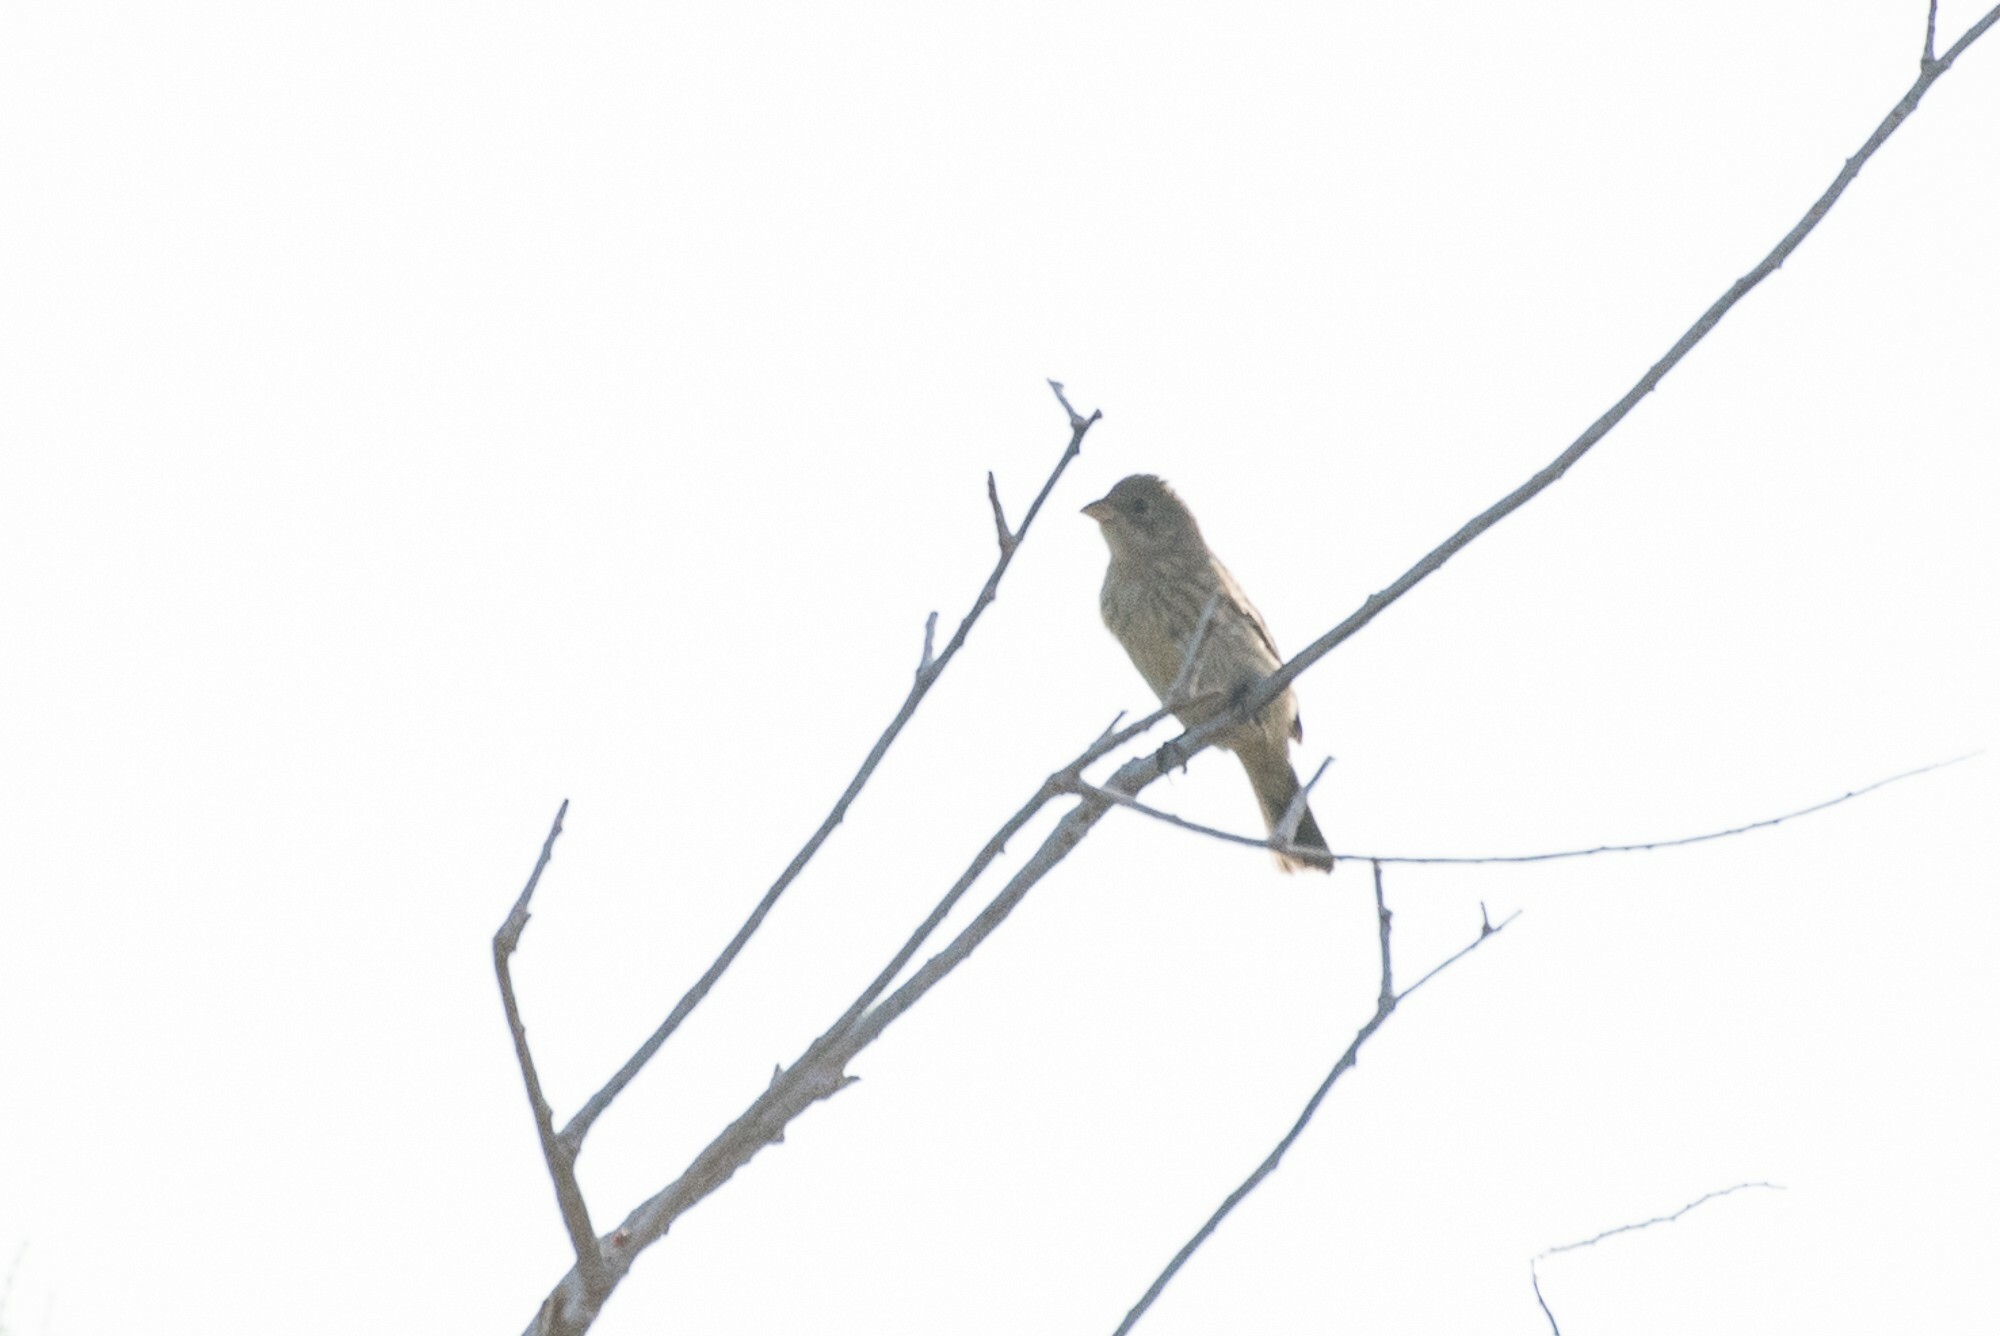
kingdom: Animalia
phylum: Chordata
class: Aves
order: Passeriformes
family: Cardinalidae
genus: Passerina
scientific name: Passerina amoena
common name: Lazuli bunting
